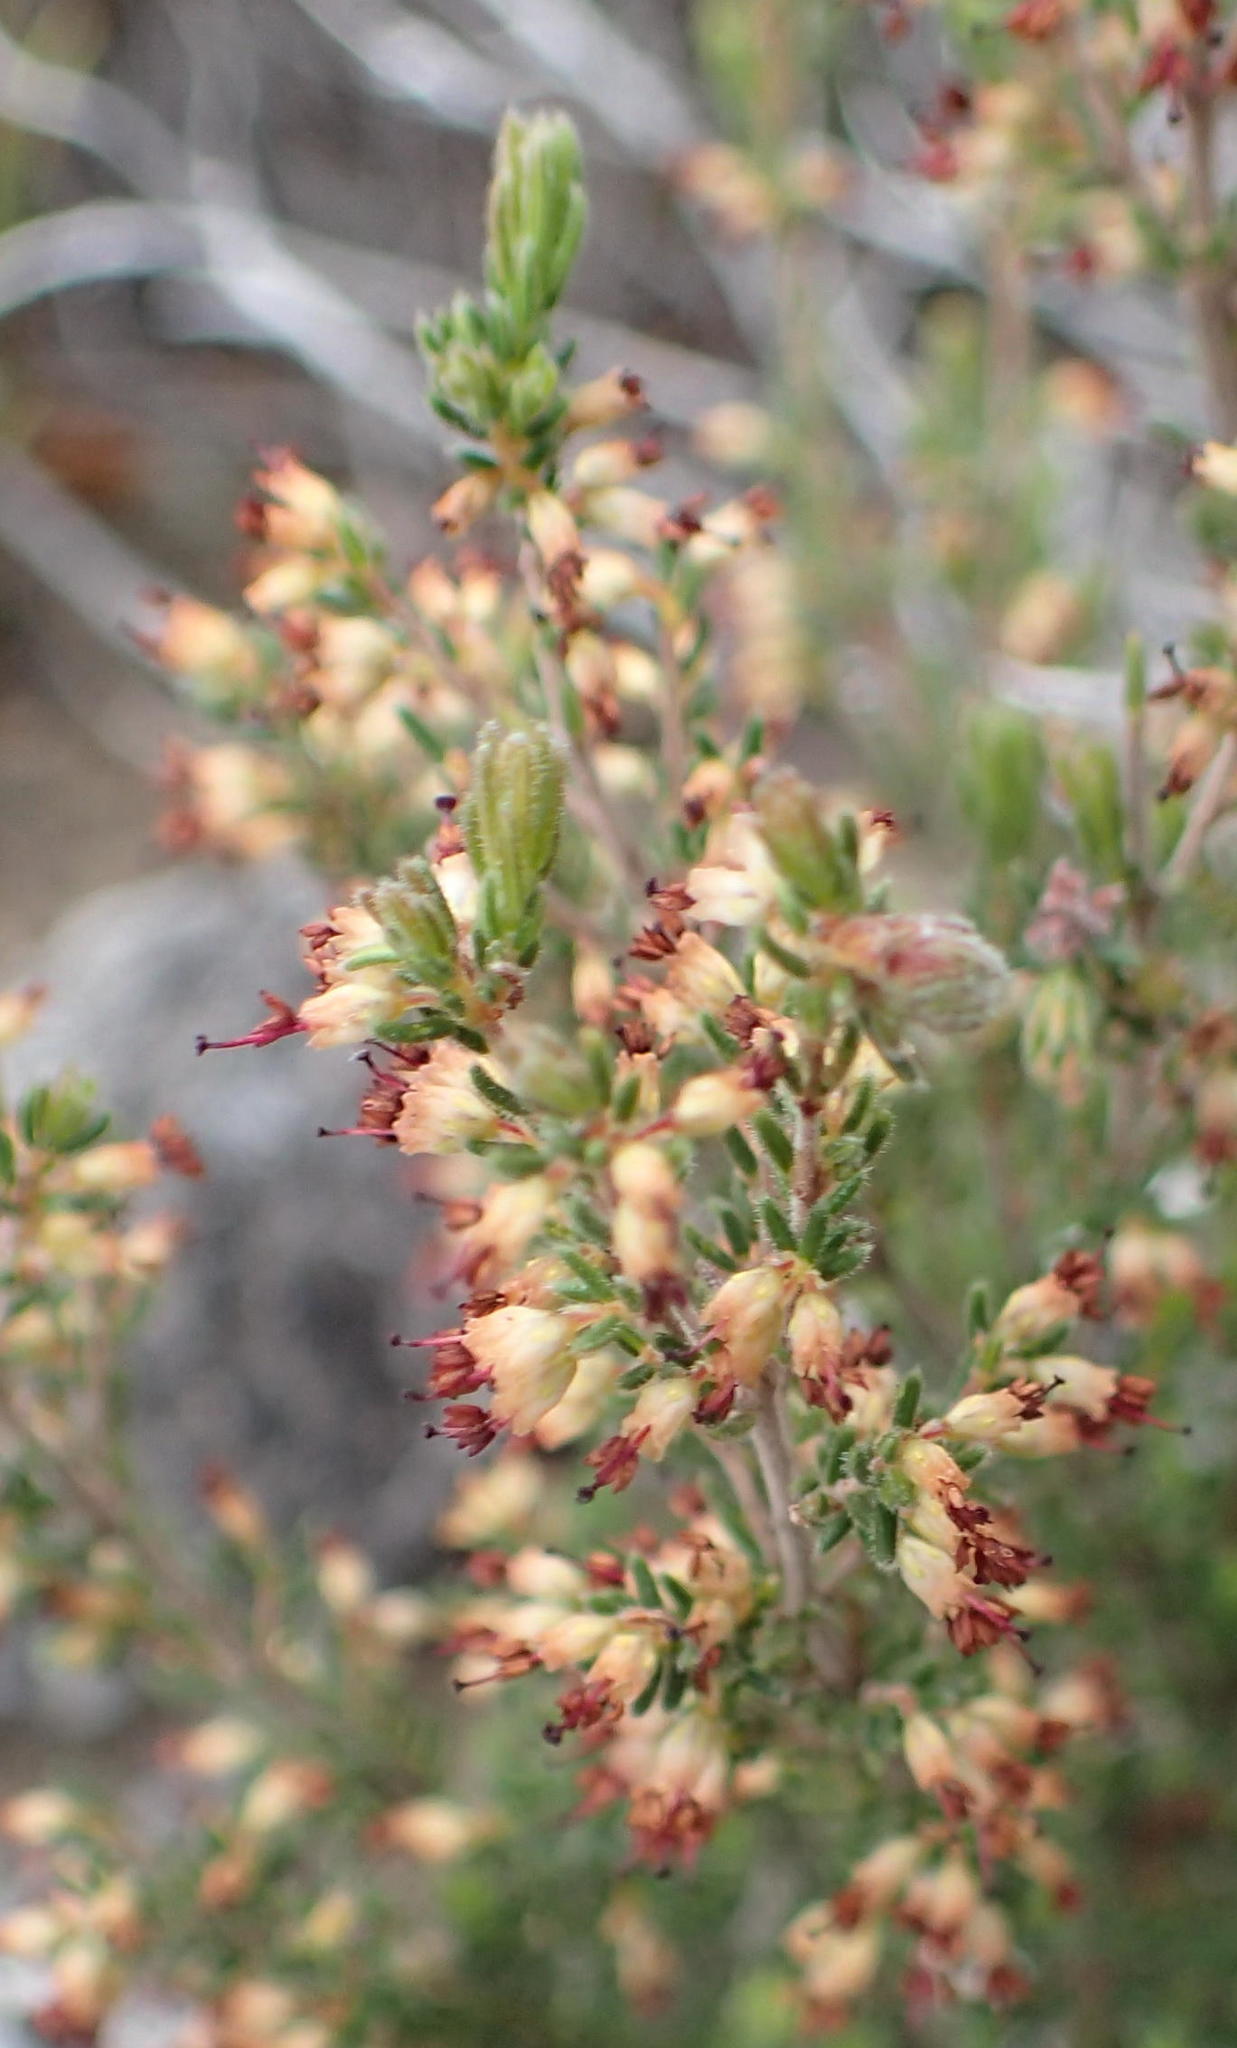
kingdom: Plantae
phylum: Tracheophyta
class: Magnoliopsida
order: Ericales
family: Ericaceae
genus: Erica
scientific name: Erica klotzschii
